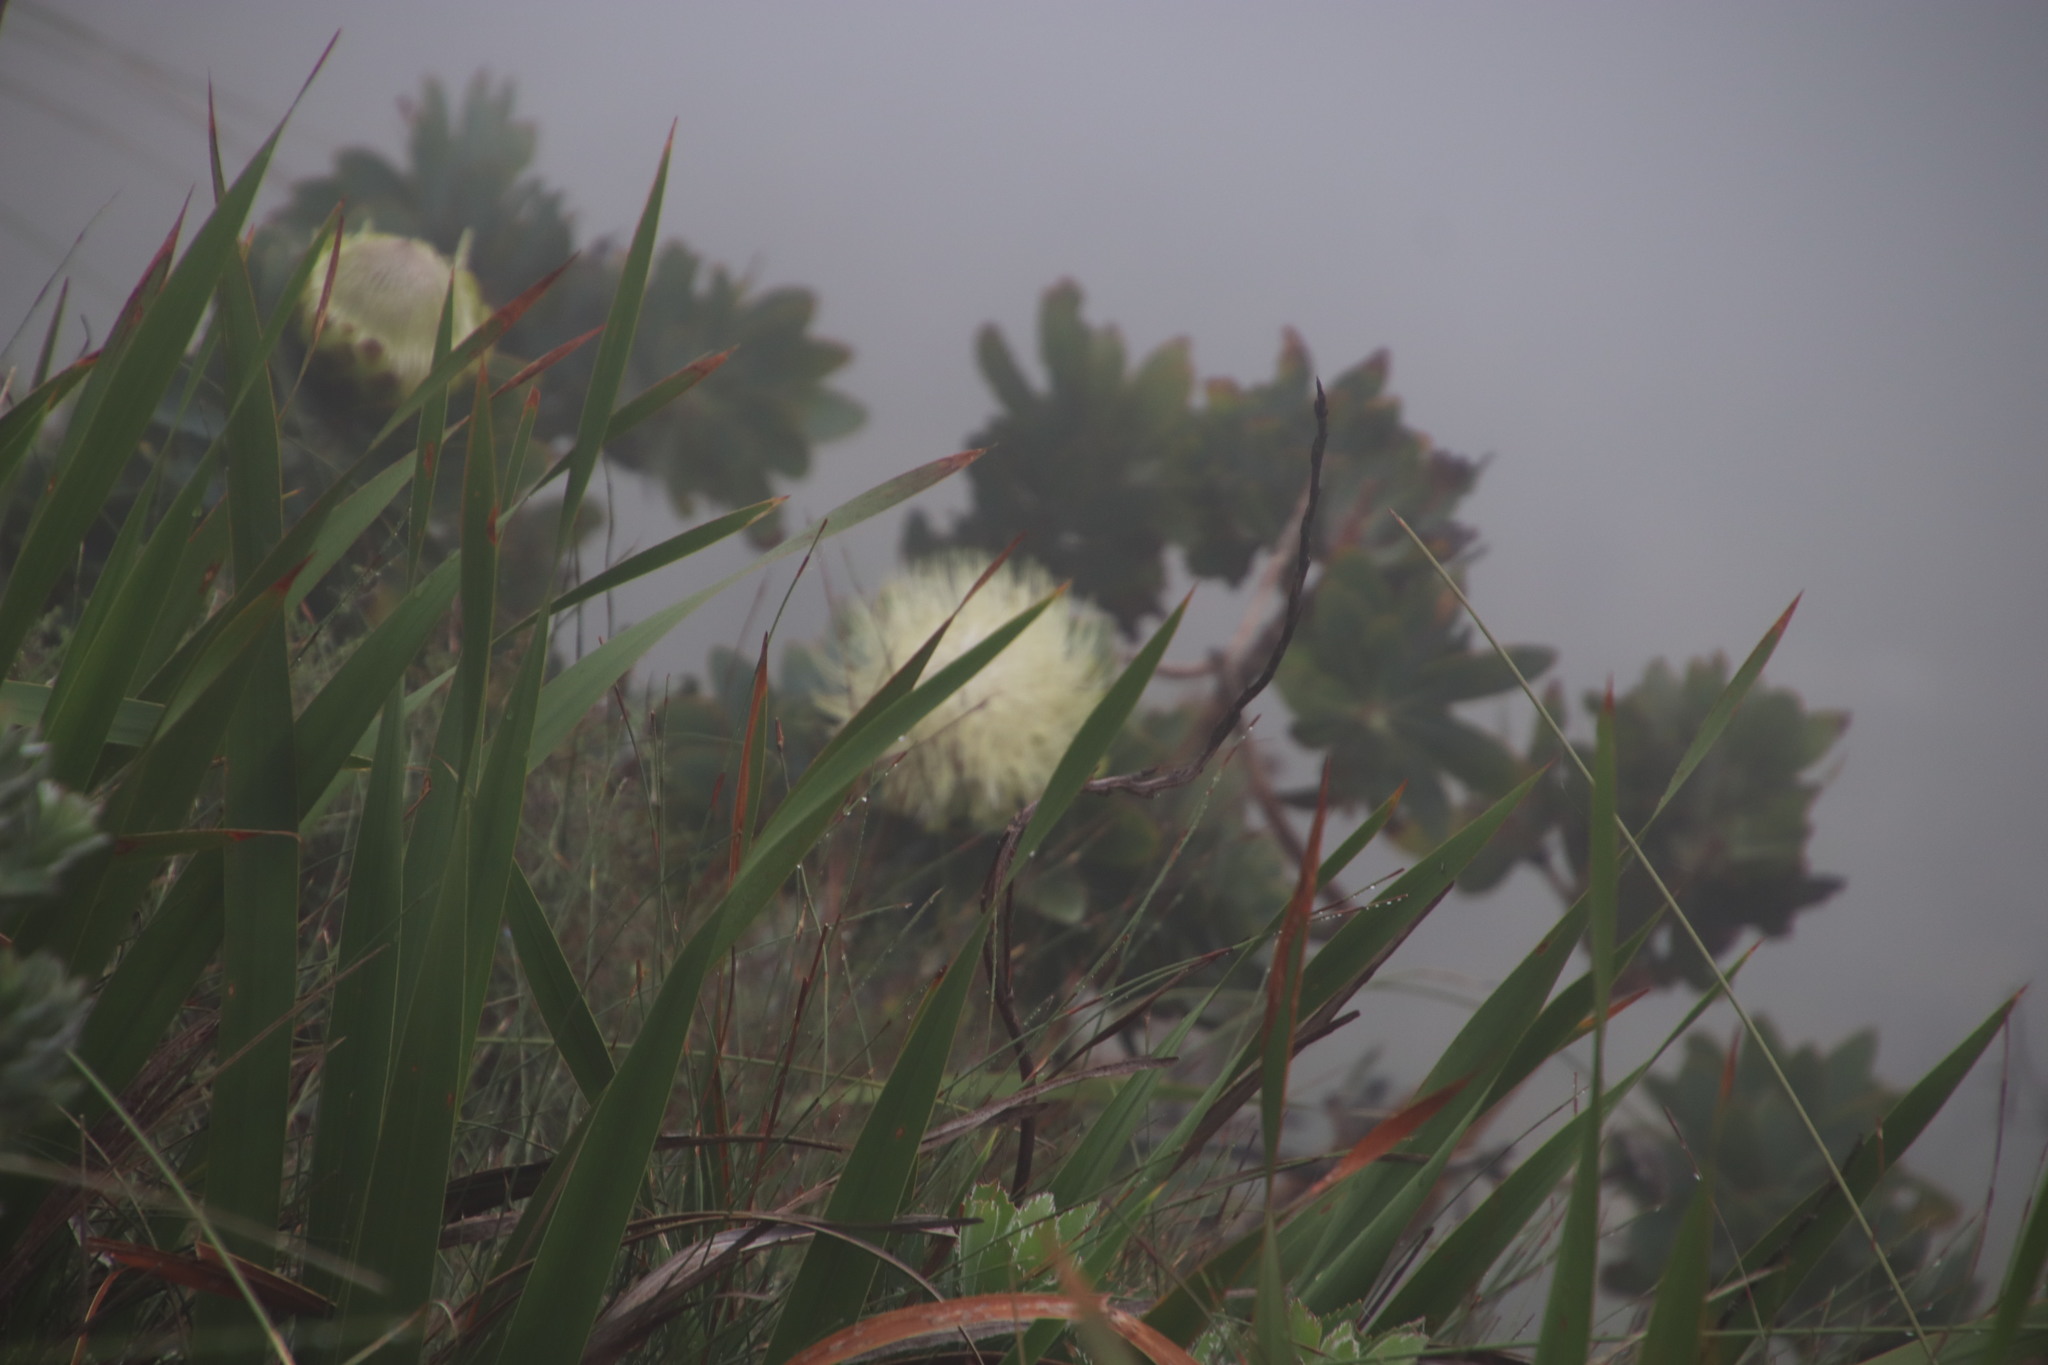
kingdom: Plantae
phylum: Tracheophyta
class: Magnoliopsida
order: Proteales
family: Proteaceae
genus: Protea
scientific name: Protea nitida
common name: Tree protea
